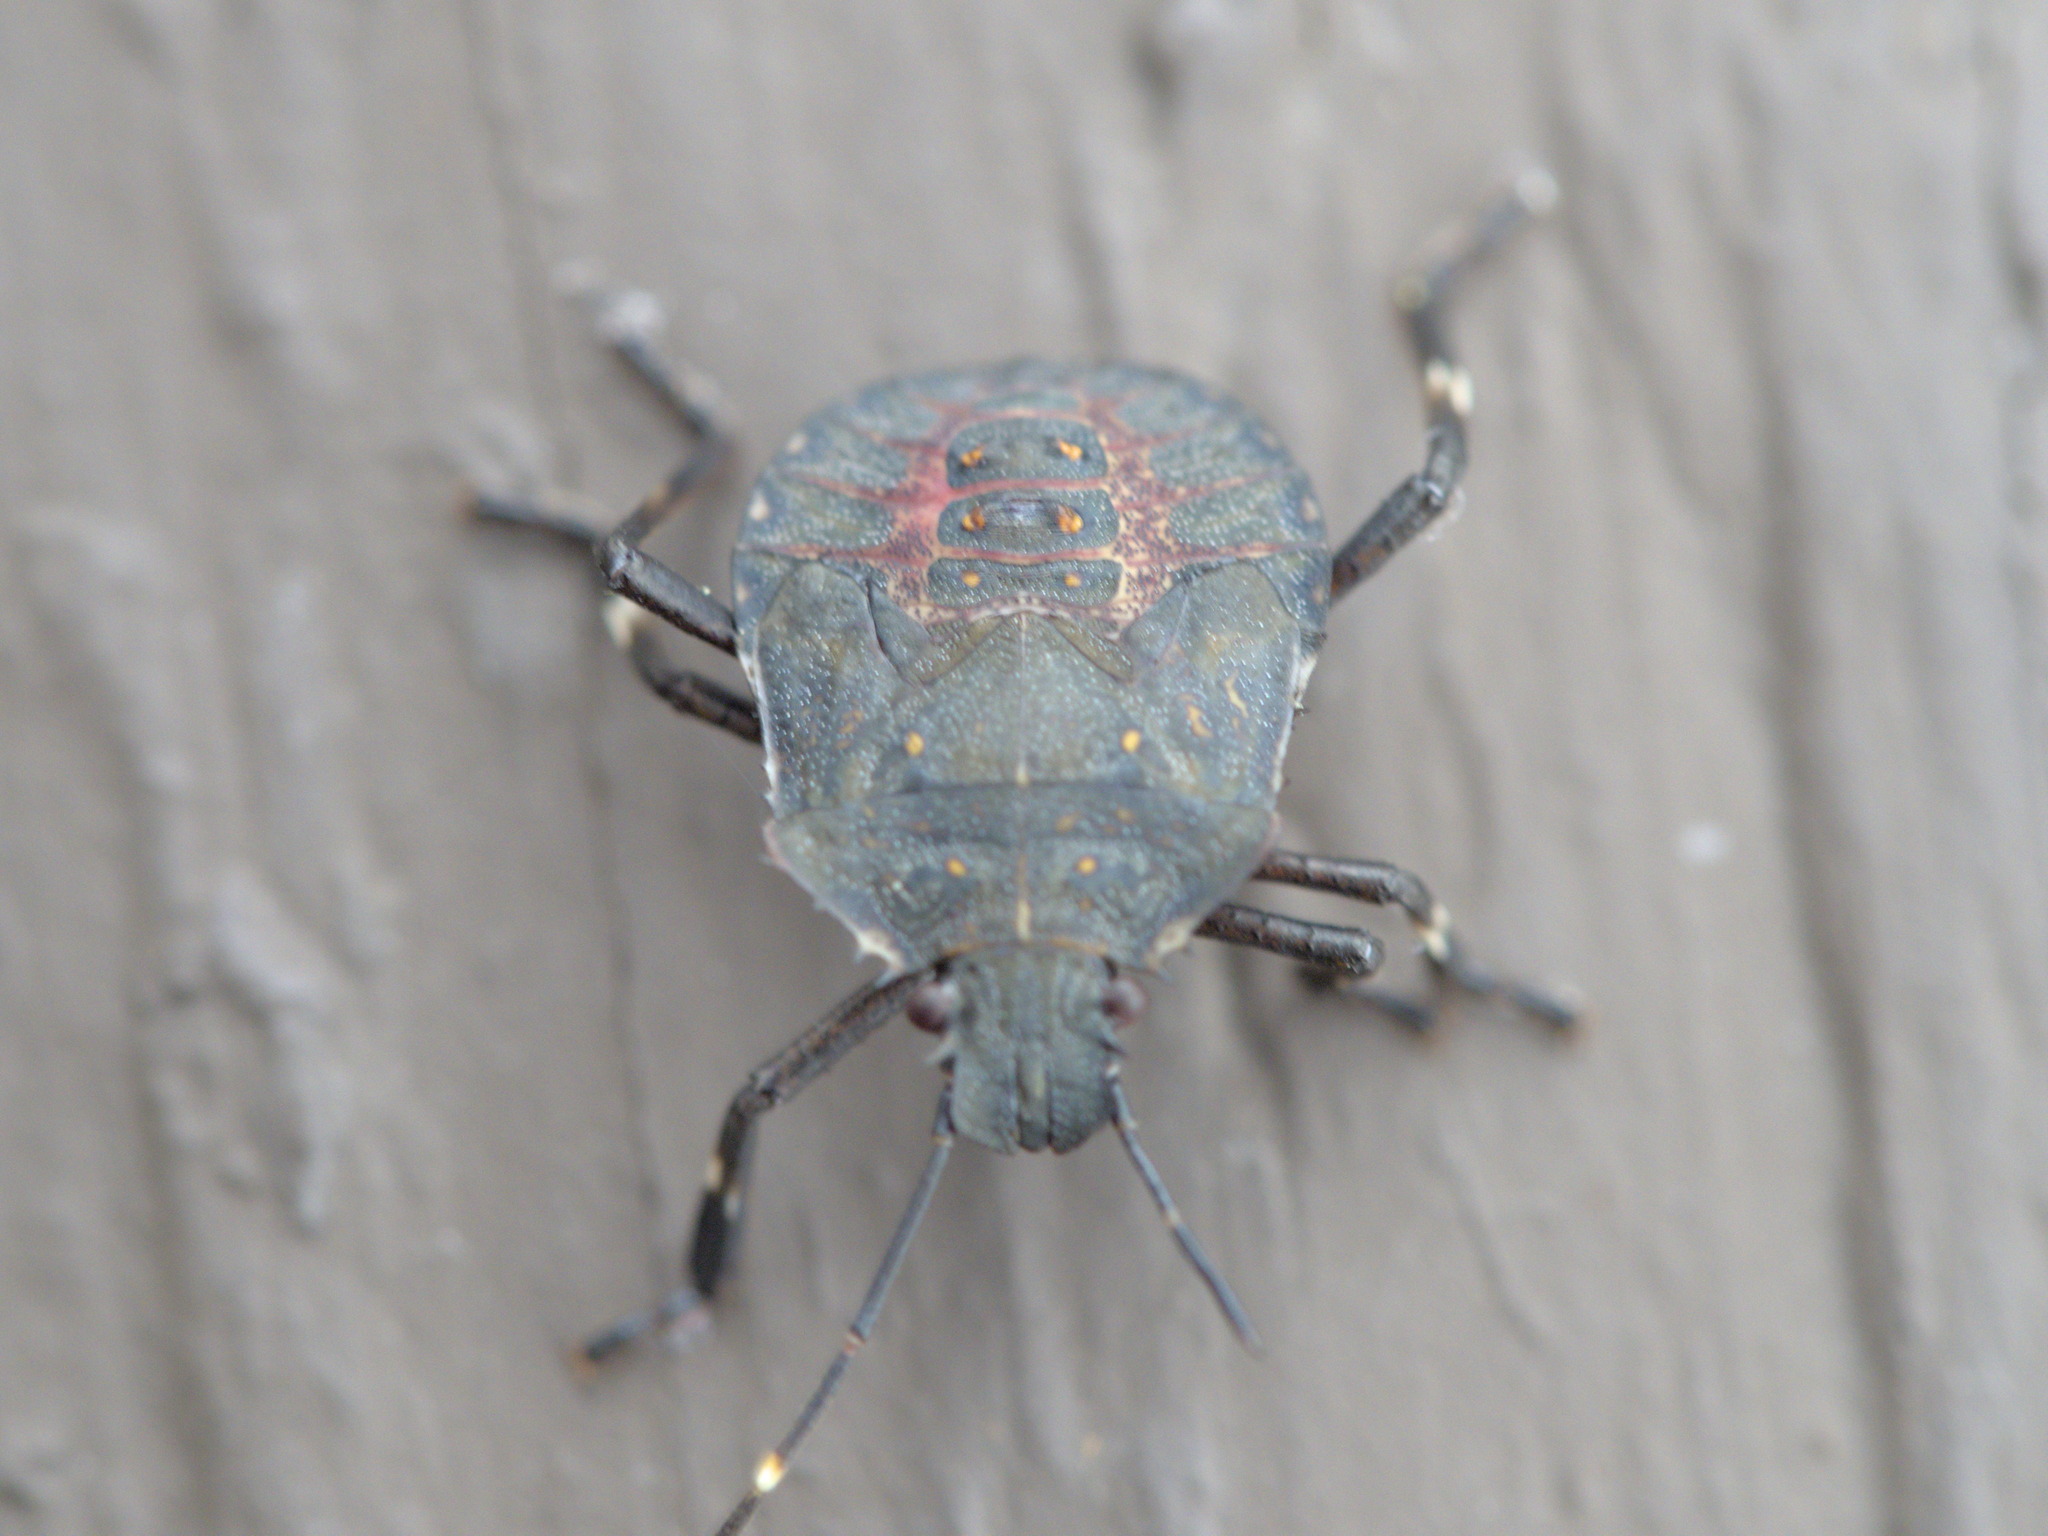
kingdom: Animalia
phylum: Arthropoda
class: Insecta
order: Hemiptera
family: Pentatomidae
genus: Halyomorpha
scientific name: Halyomorpha halys
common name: Brown marmorated stink bug
